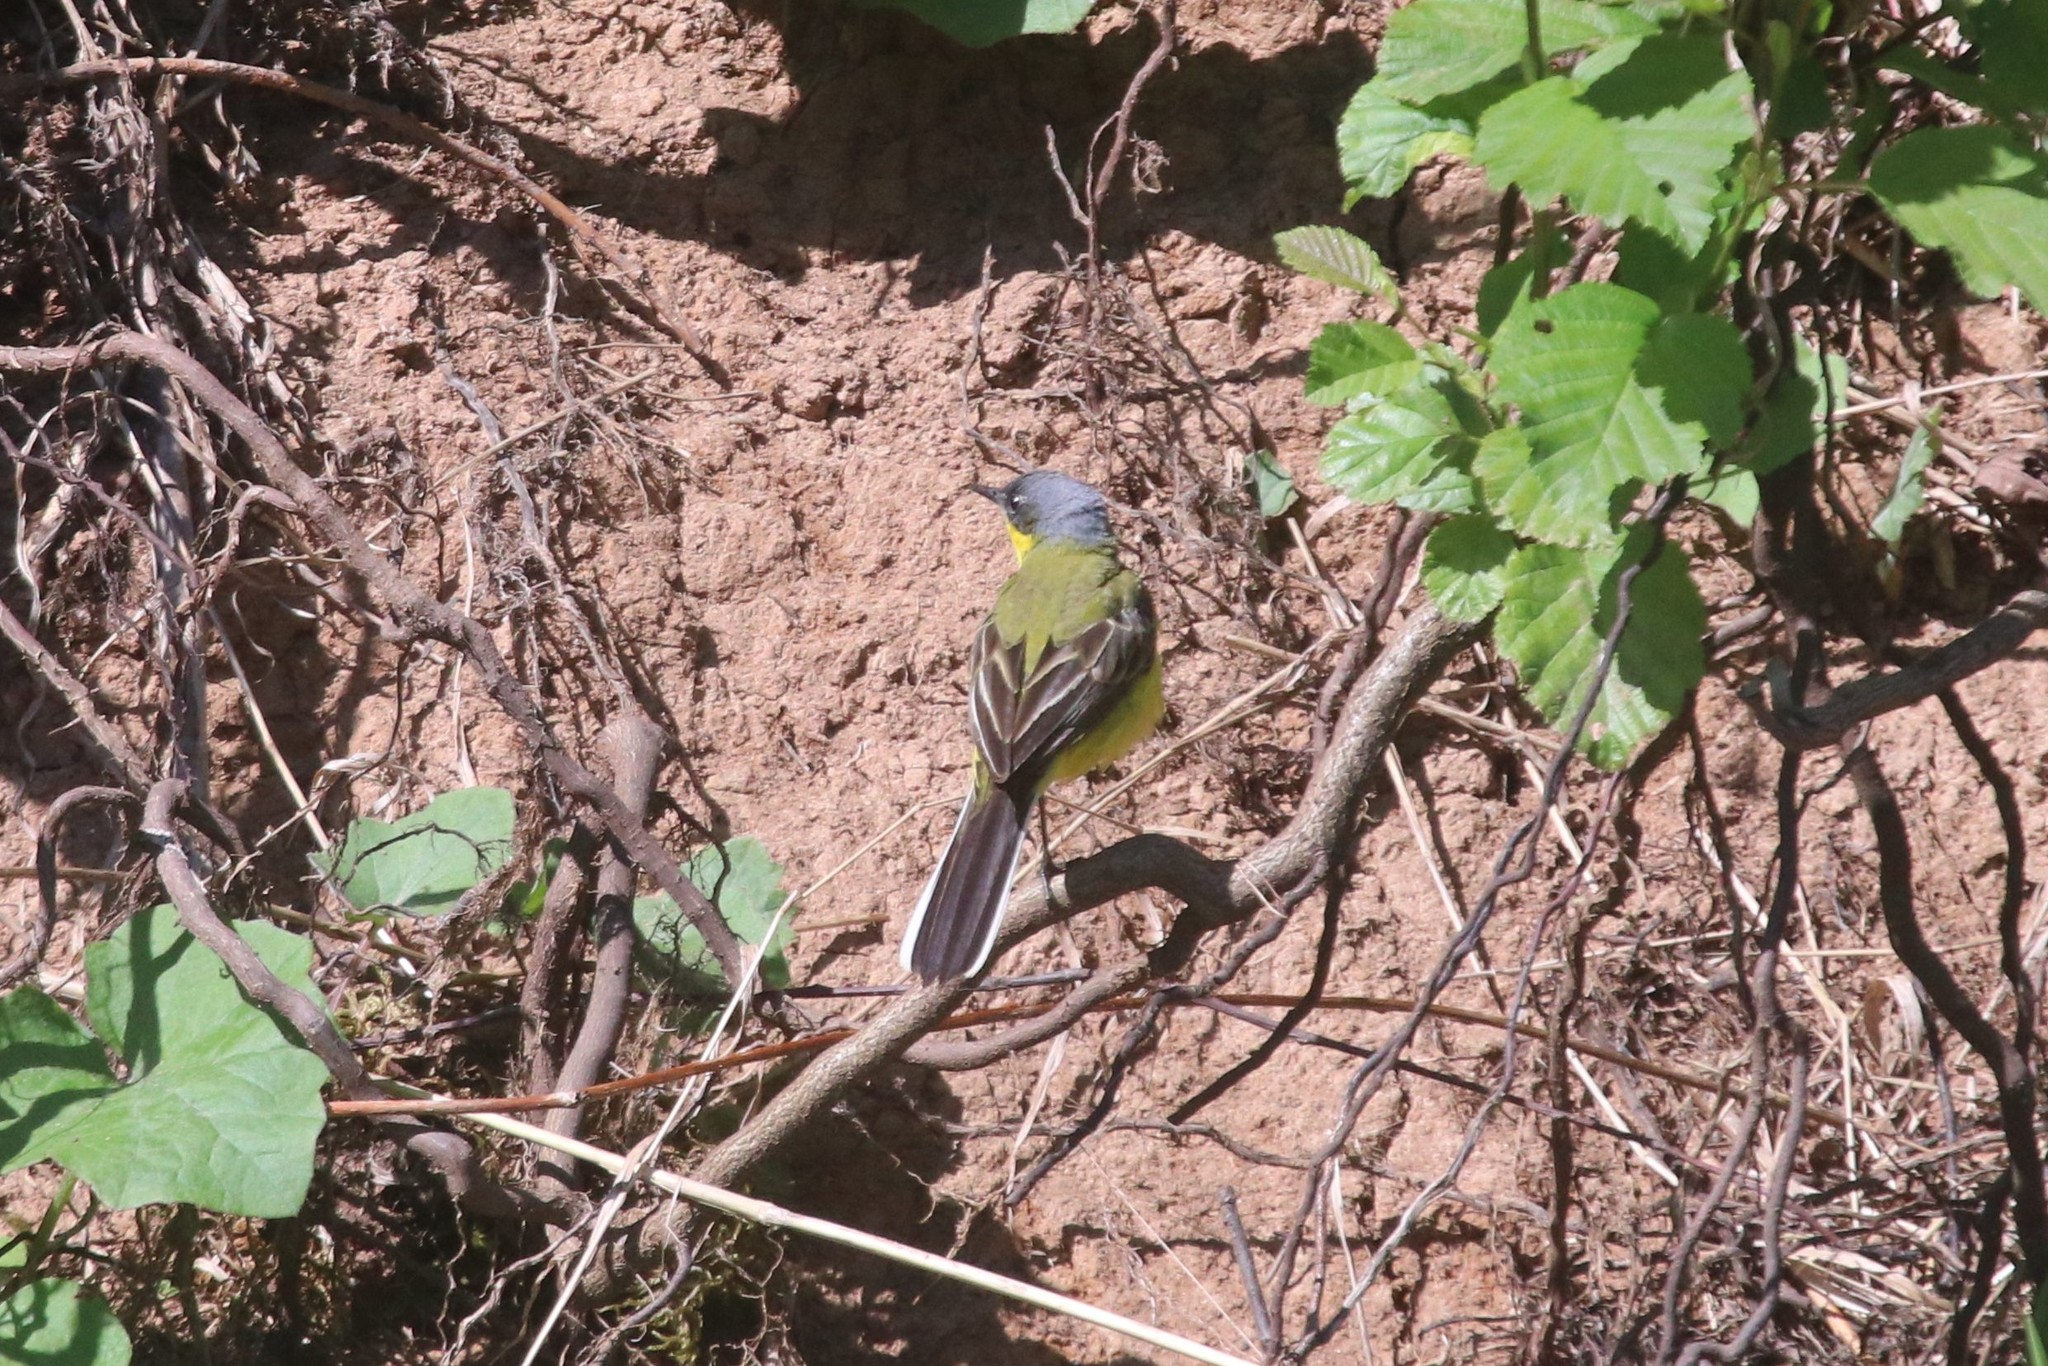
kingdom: Animalia
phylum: Chordata
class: Aves
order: Passeriformes
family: Motacillidae
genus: Motacilla
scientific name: Motacilla flava
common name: Western yellow wagtail
